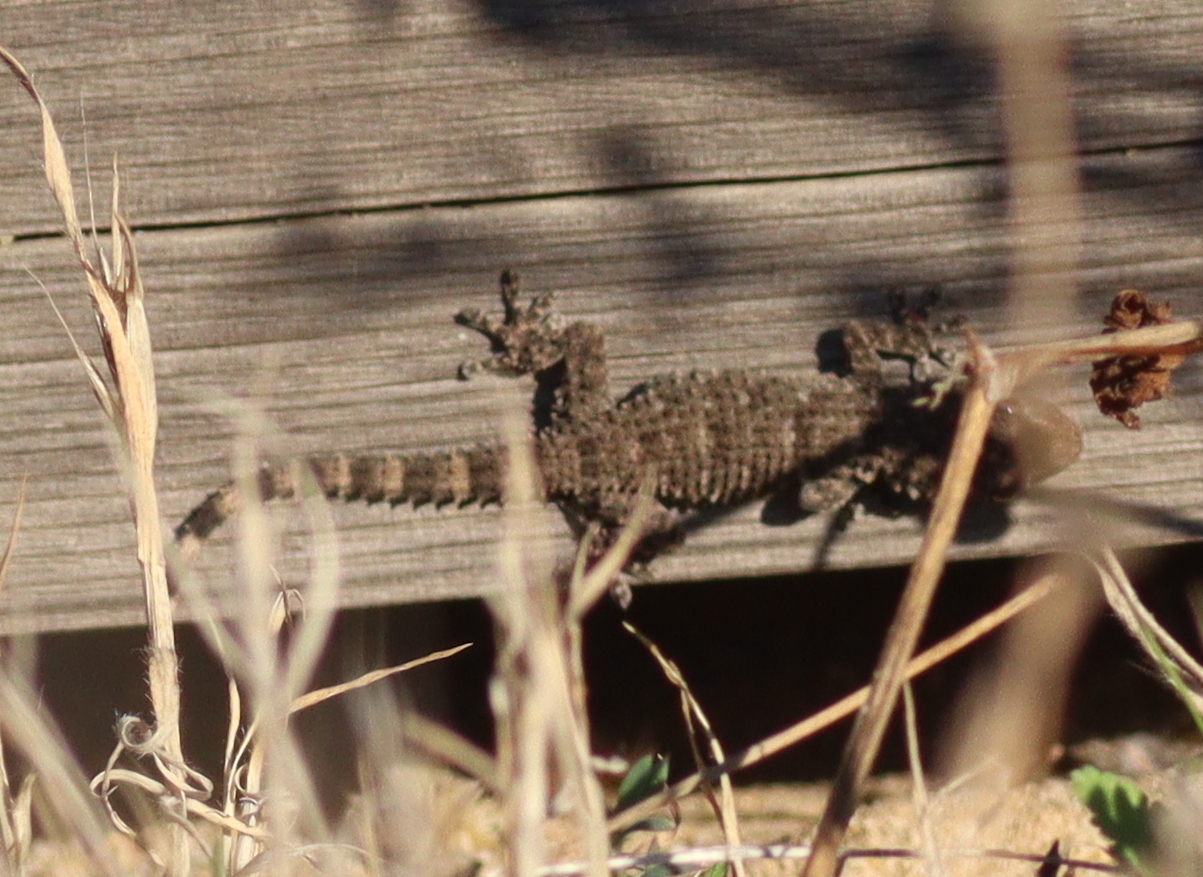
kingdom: Animalia
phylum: Chordata
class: Squamata
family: Phyllodactylidae
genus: Tarentola
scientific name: Tarentola mauritanica
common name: Moorish gecko
